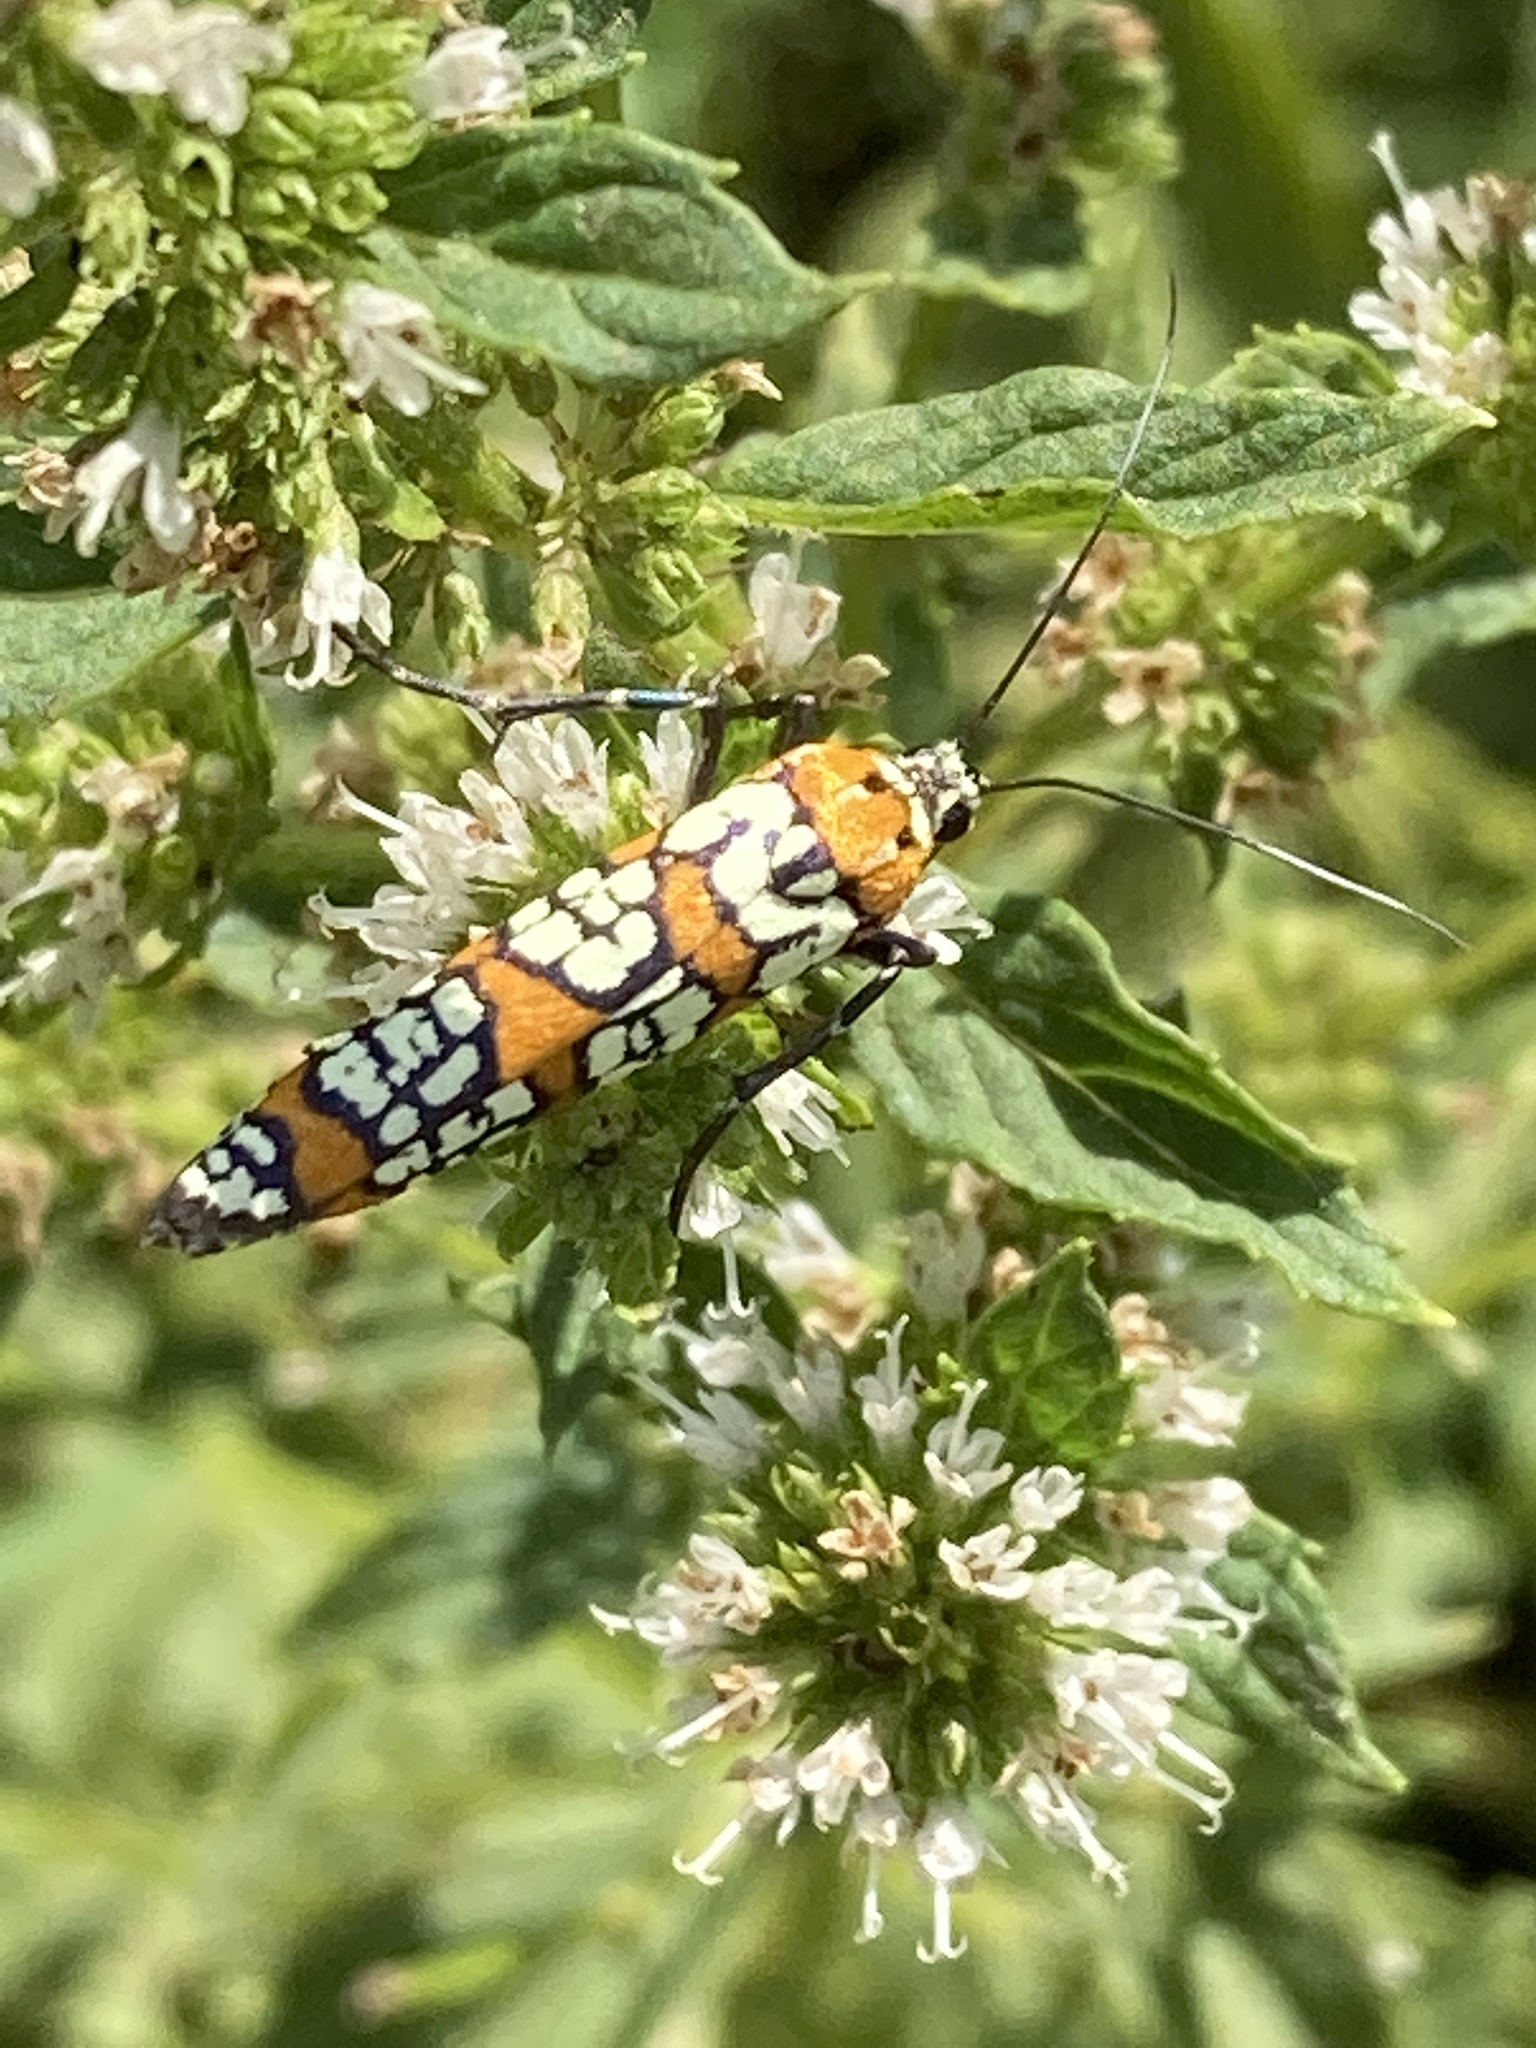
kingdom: Animalia
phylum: Arthropoda
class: Insecta
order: Lepidoptera
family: Attevidae
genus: Atteva
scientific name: Atteva punctella
